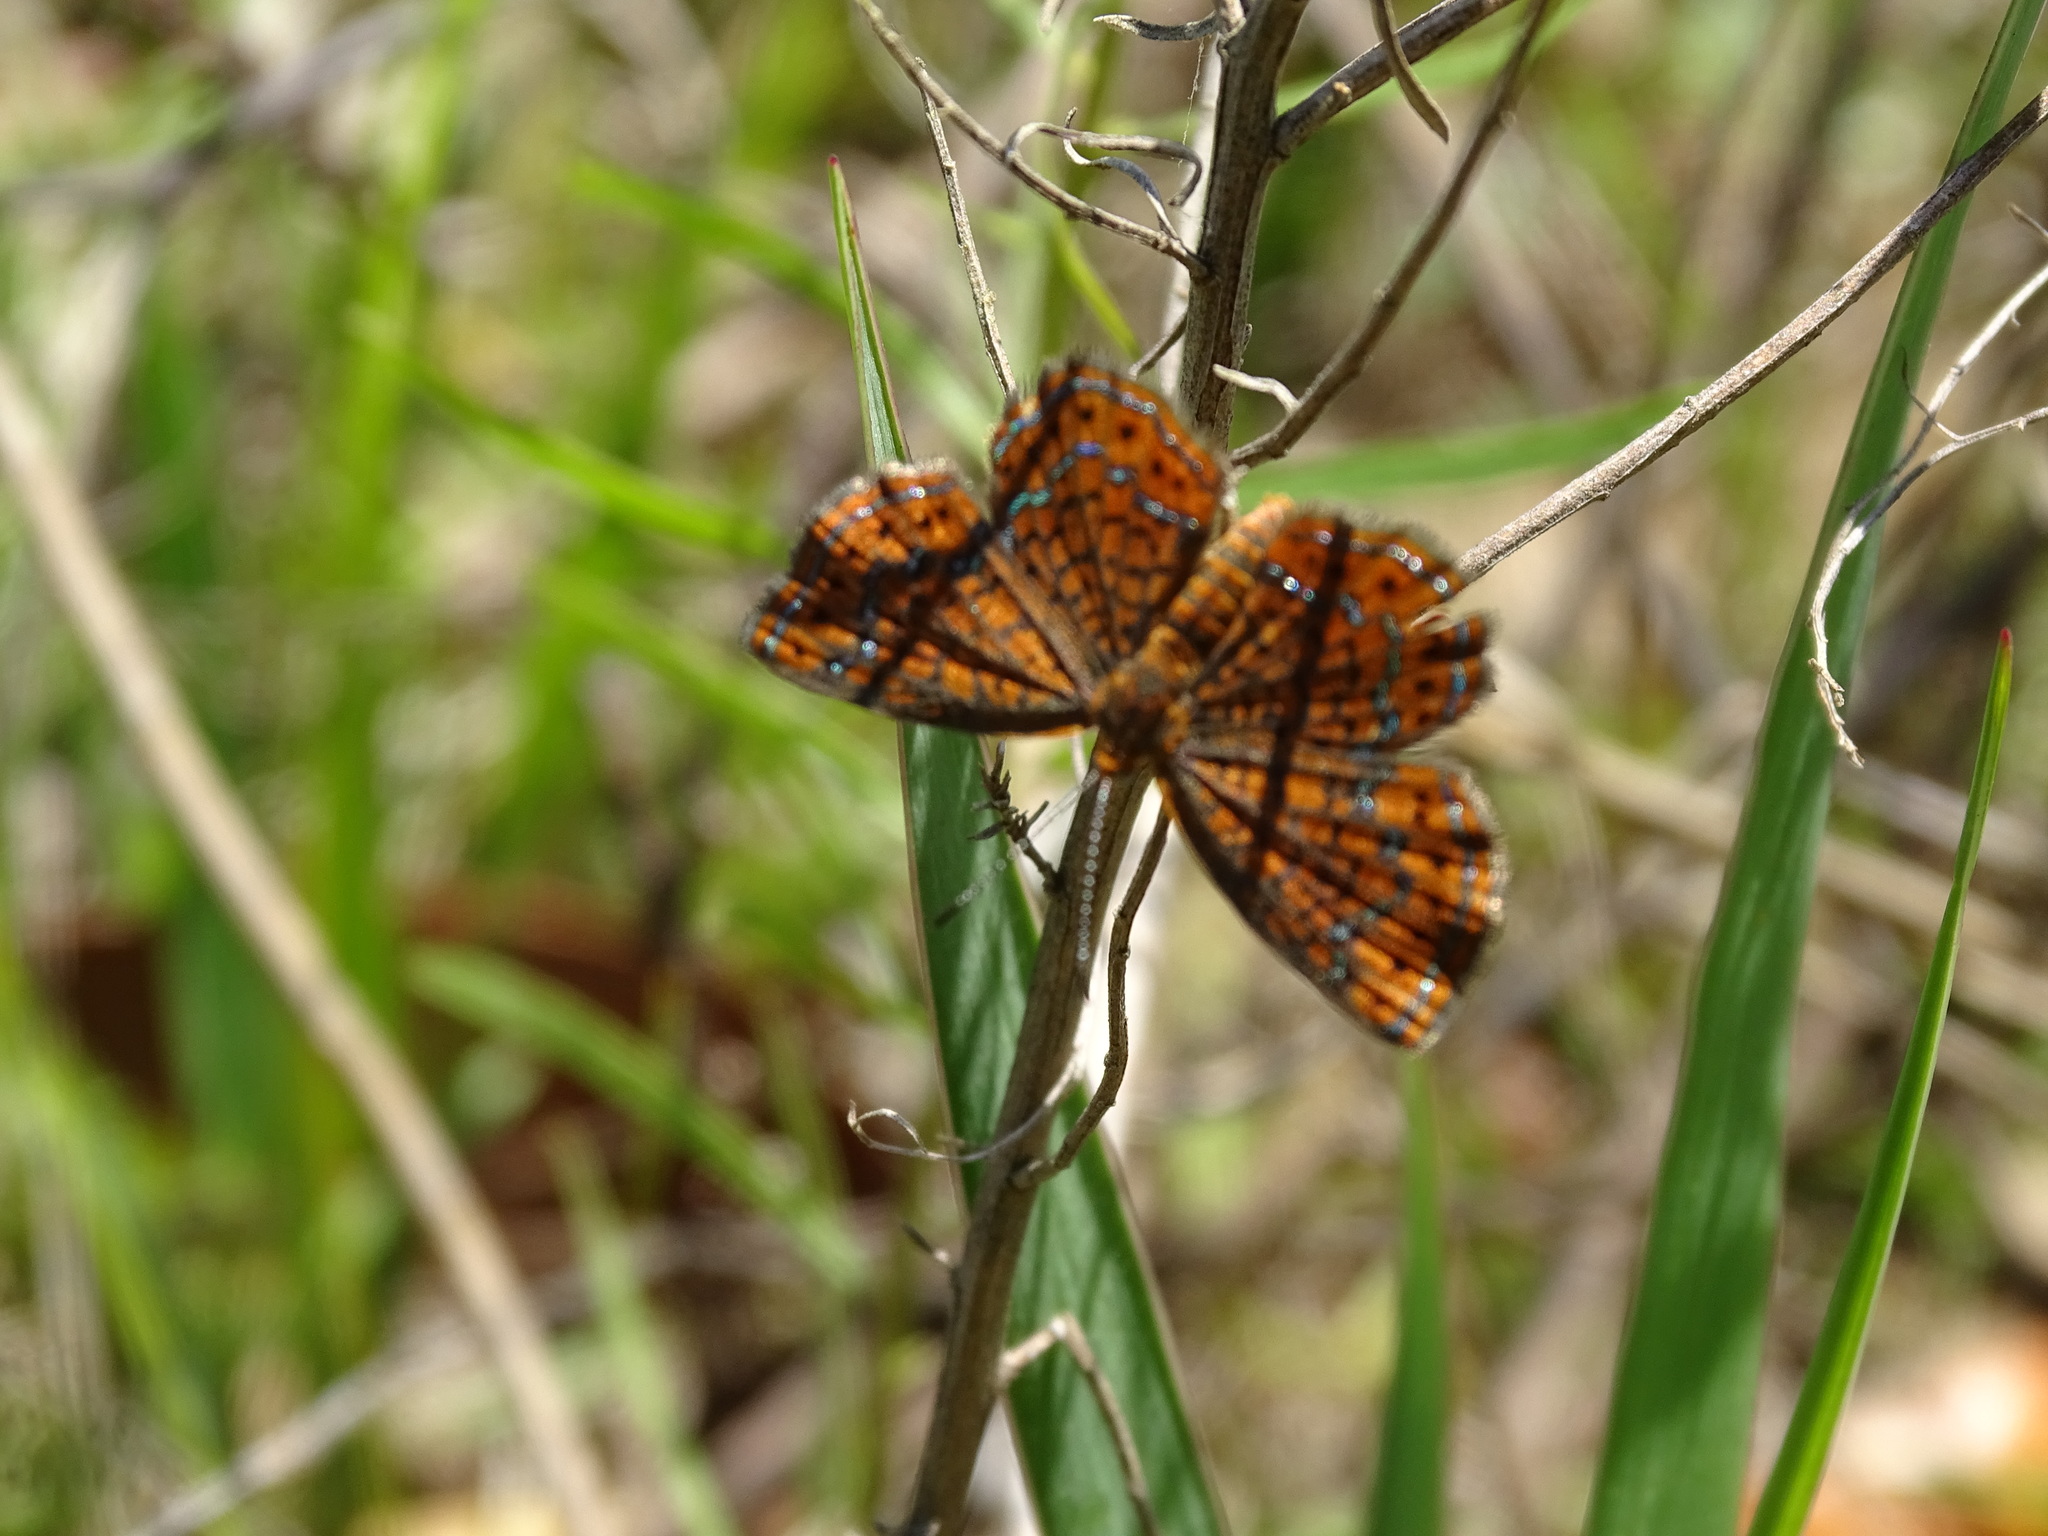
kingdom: Animalia
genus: Calephelis
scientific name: Calephelis virginiensis
